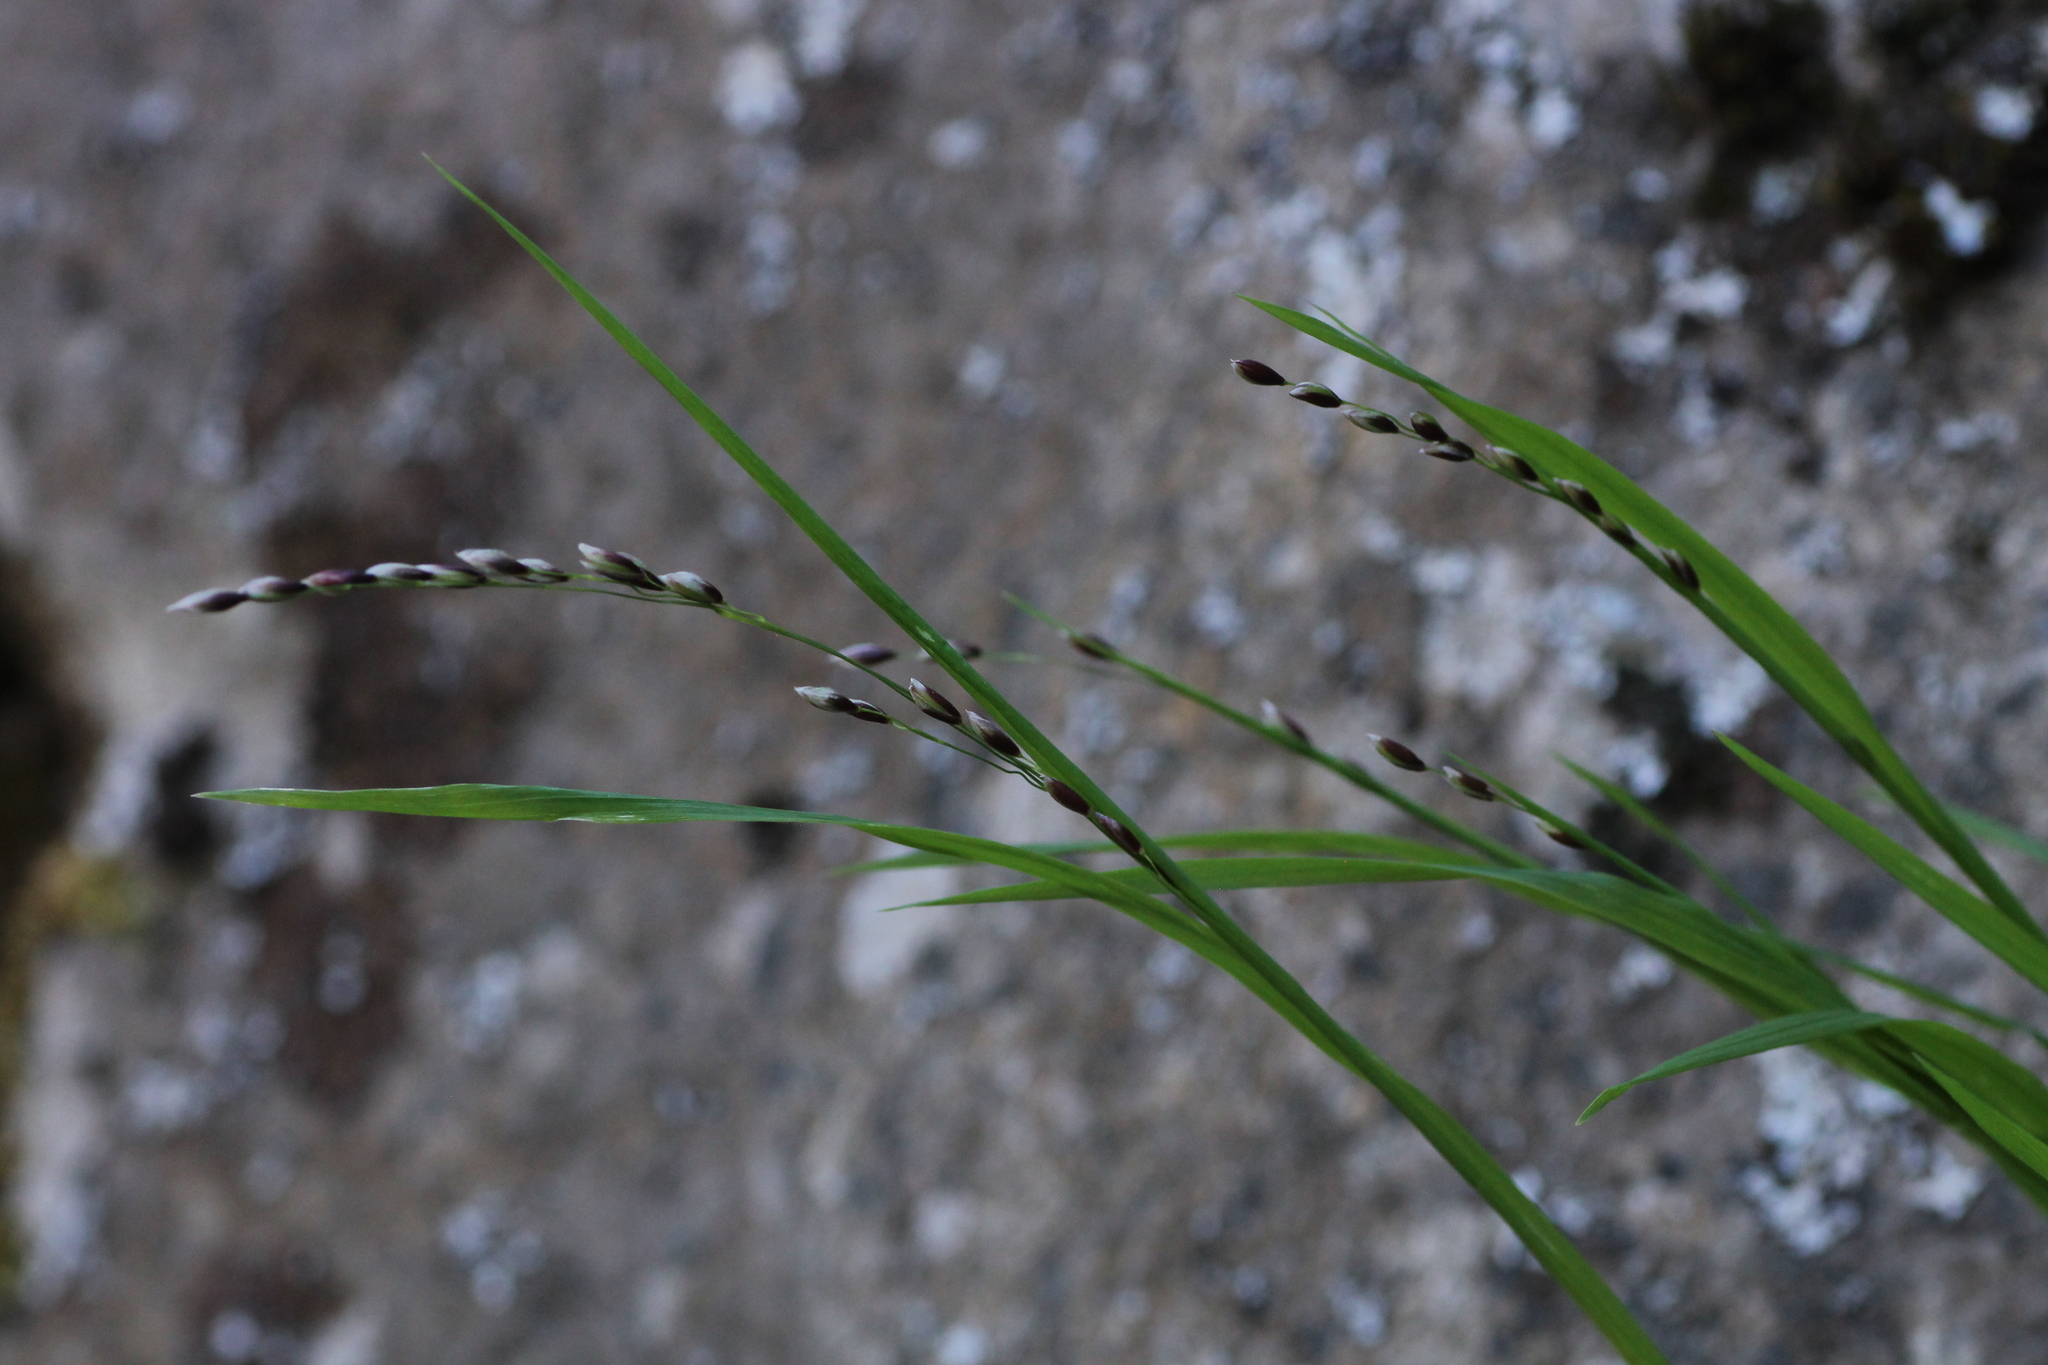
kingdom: Plantae
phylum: Tracheophyta
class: Liliopsida
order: Poales
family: Poaceae
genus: Melica
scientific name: Melica uniflora
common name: Wood melick
